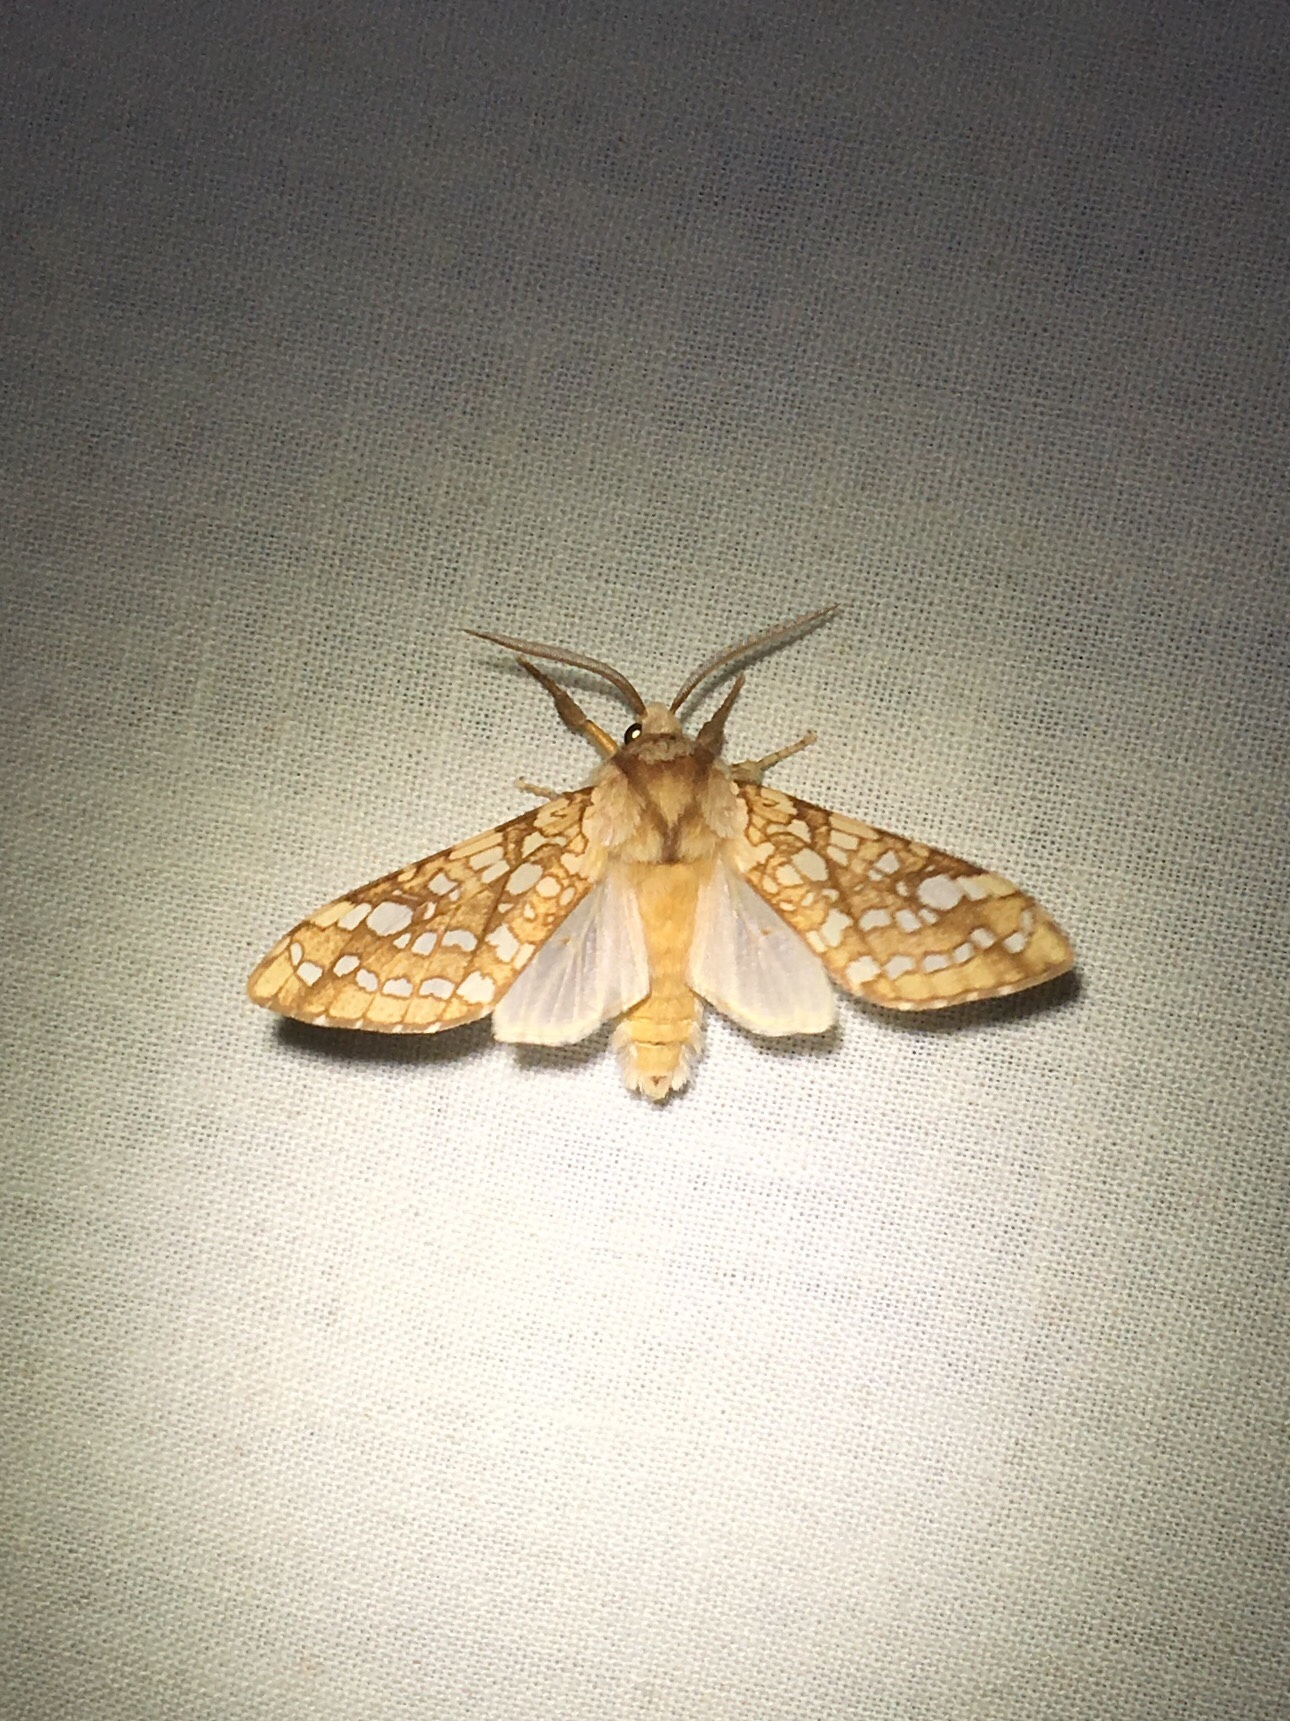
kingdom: Animalia
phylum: Arthropoda
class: Insecta
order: Lepidoptera
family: Erebidae
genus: Lophocampa
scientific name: Lophocampa caryae
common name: Hickory tussock moth
